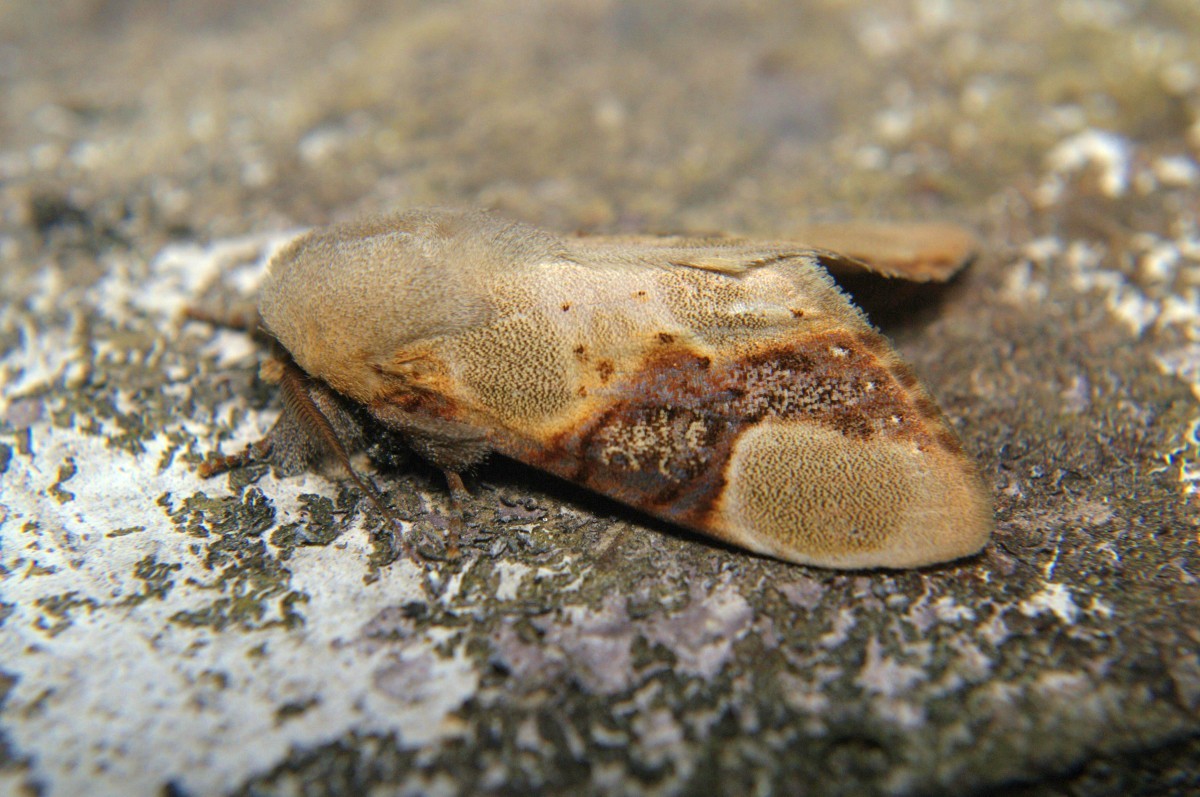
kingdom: Animalia
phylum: Arthropoda
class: Insecta
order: Lepidoptera
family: Notodontidae
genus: Formofentonia
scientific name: Formofentonia orbifer
